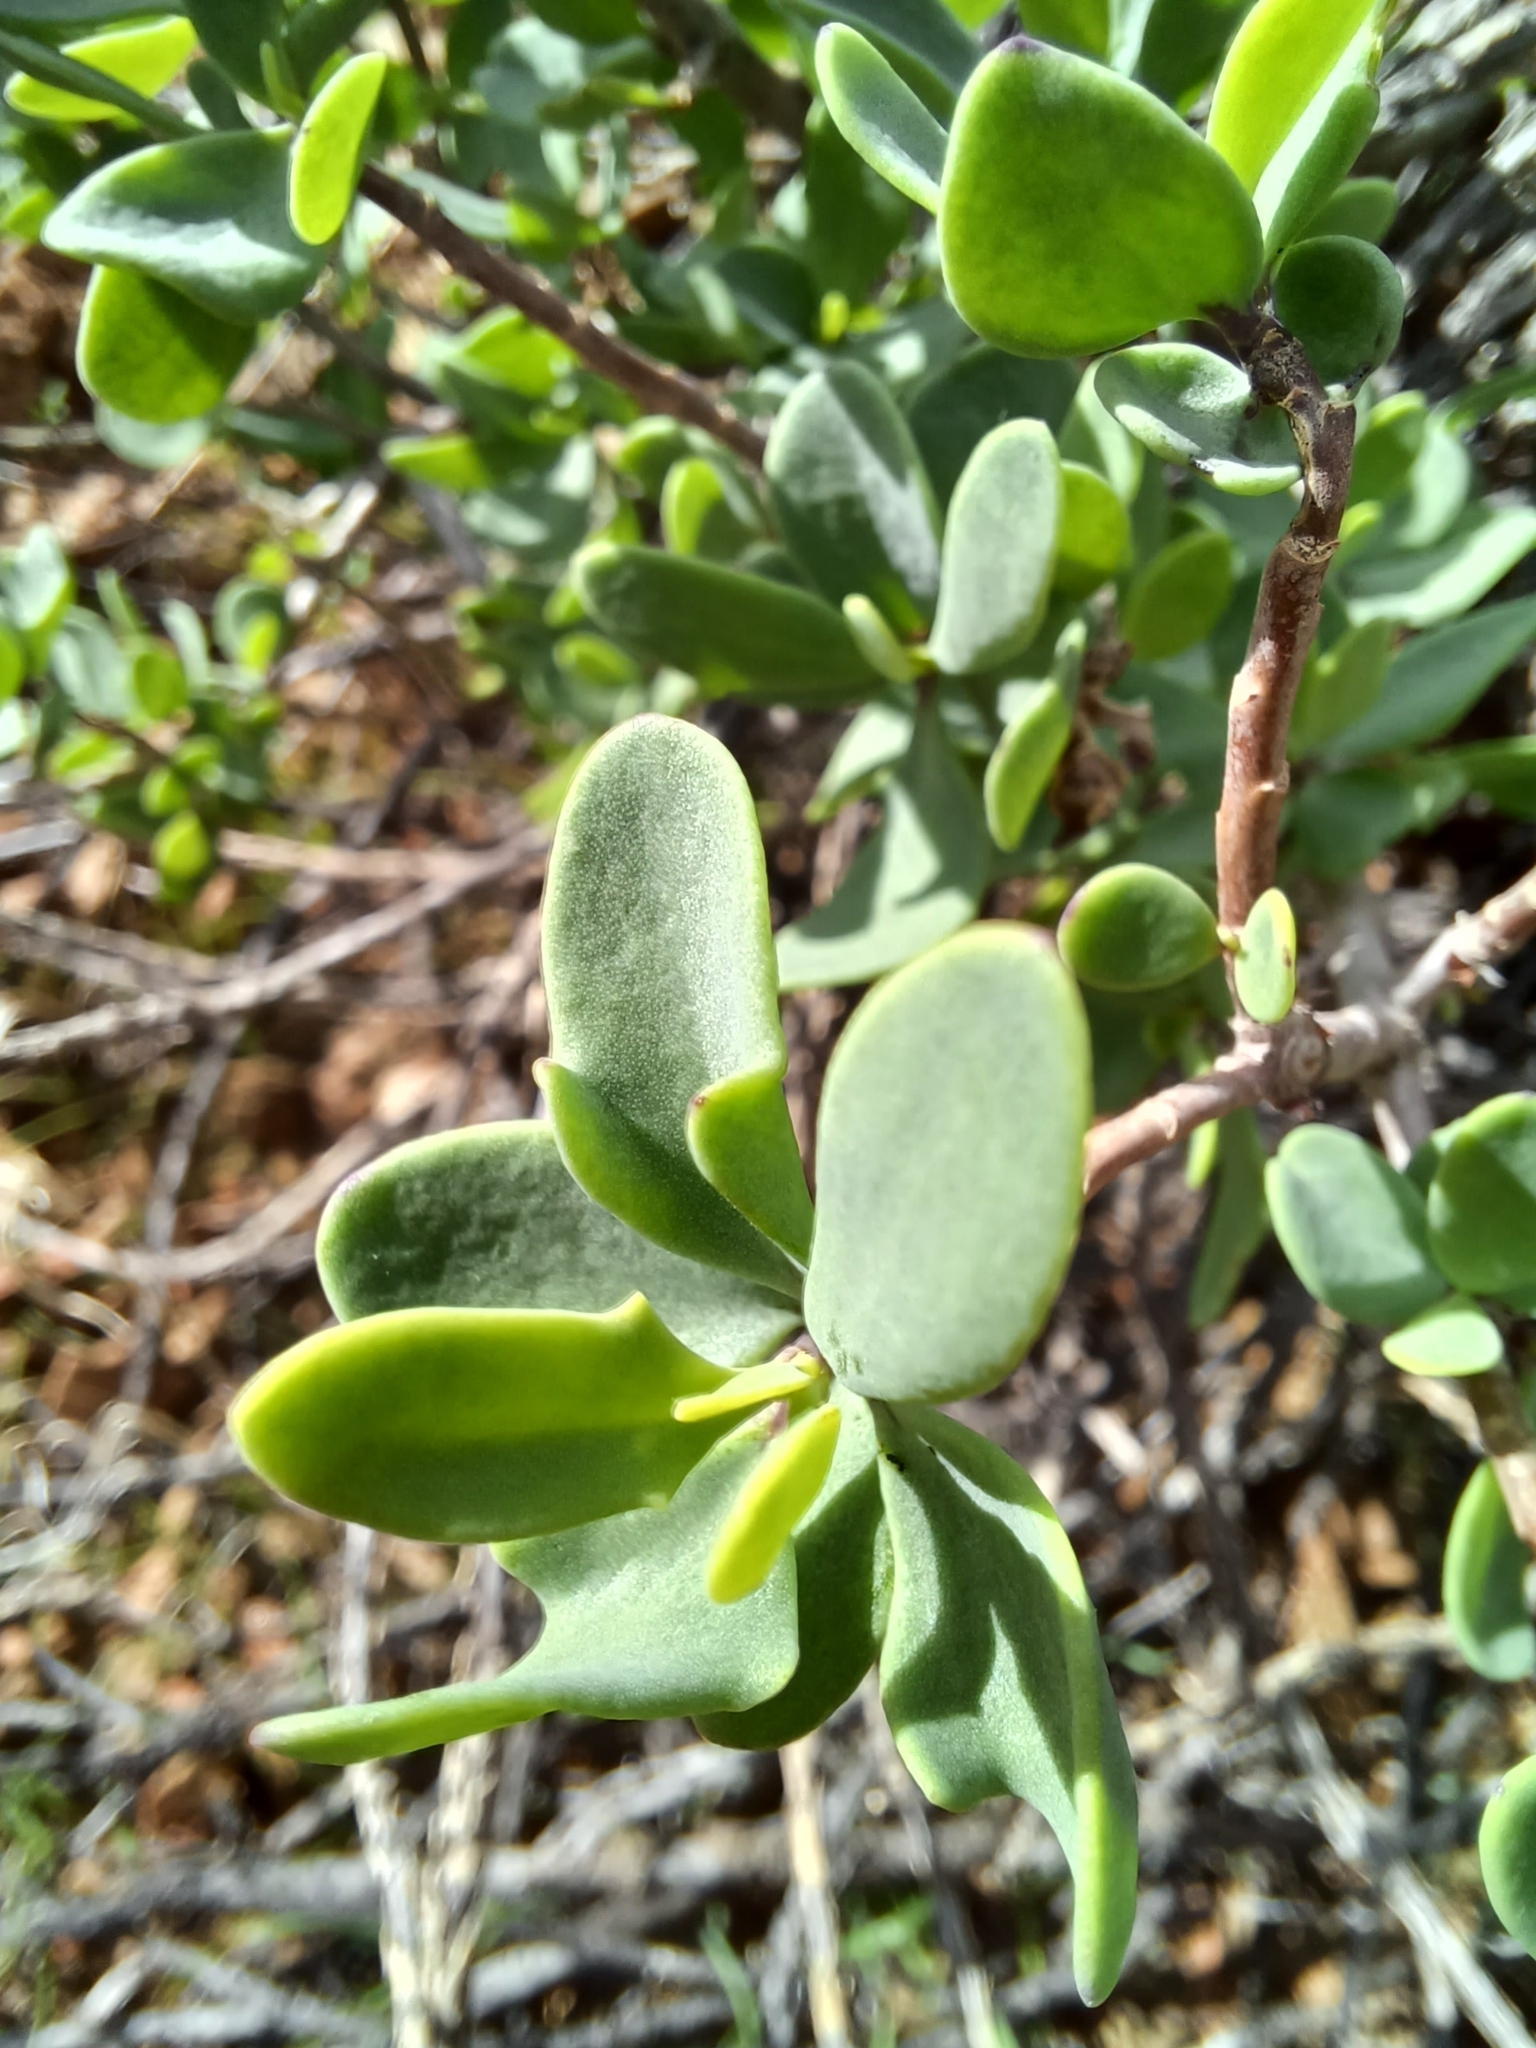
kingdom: Plantae
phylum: Tracheophyta
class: Magnoliopsida
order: Asterales
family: Asteraceae
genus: Othonna
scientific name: Othonna arbuscula
